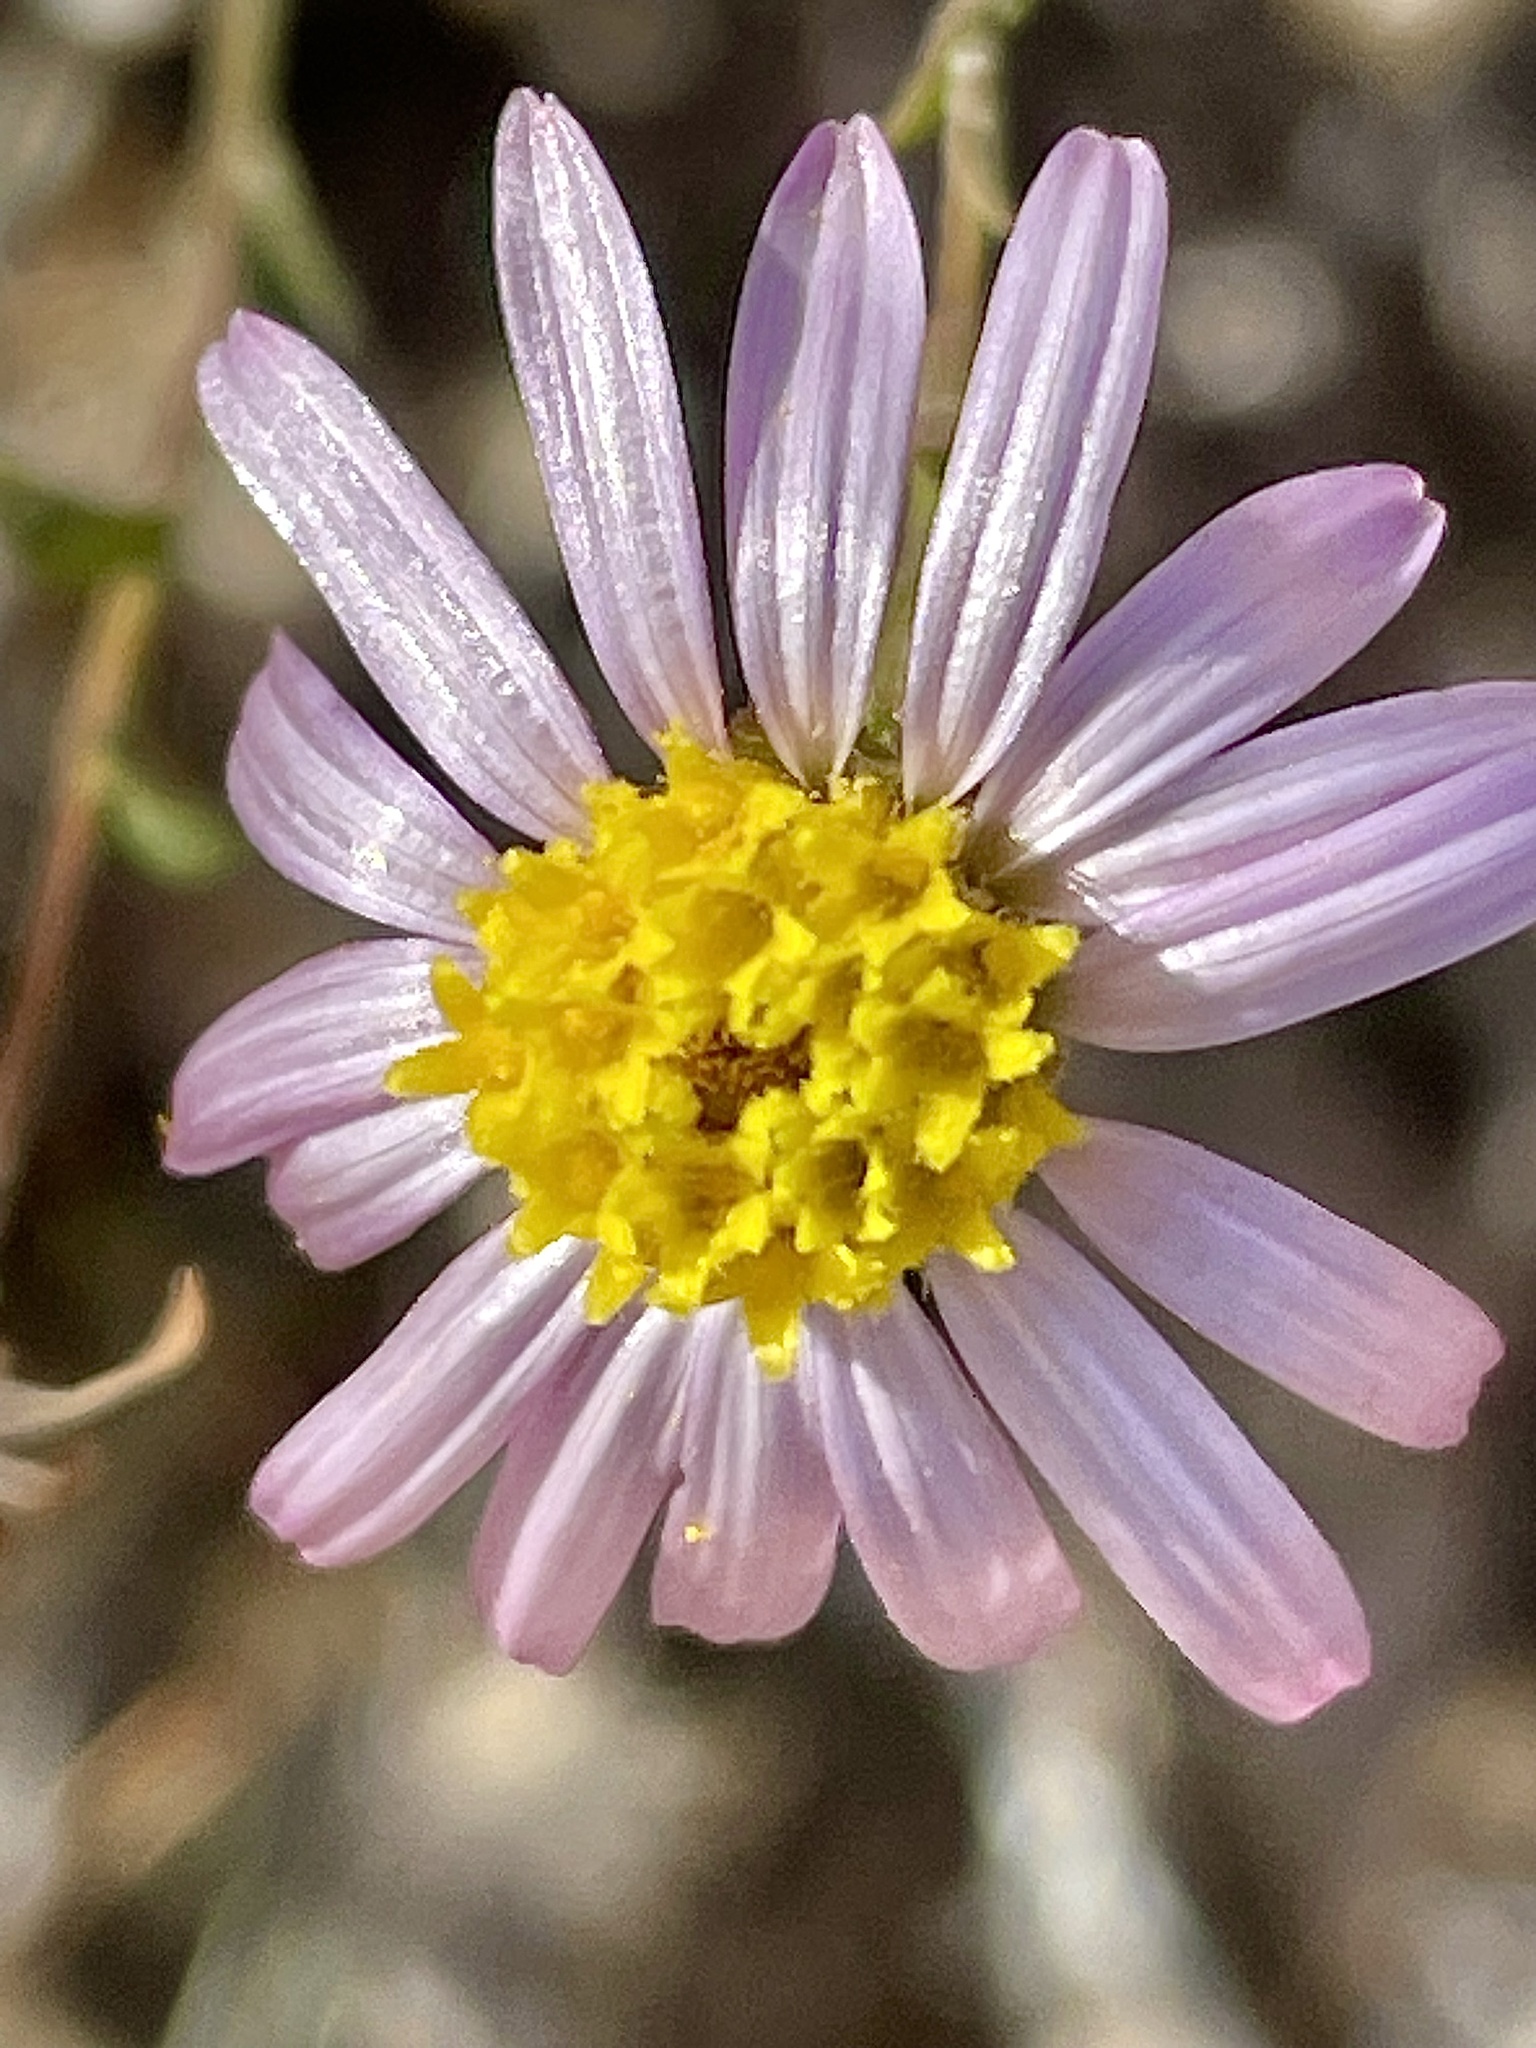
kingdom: Plantae
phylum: Tracheophyta
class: Magnoliopsida
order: Asterales
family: Asteraceae
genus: Corethrogyne
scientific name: Corethrogyne filaginifolia
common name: Sand-aster
